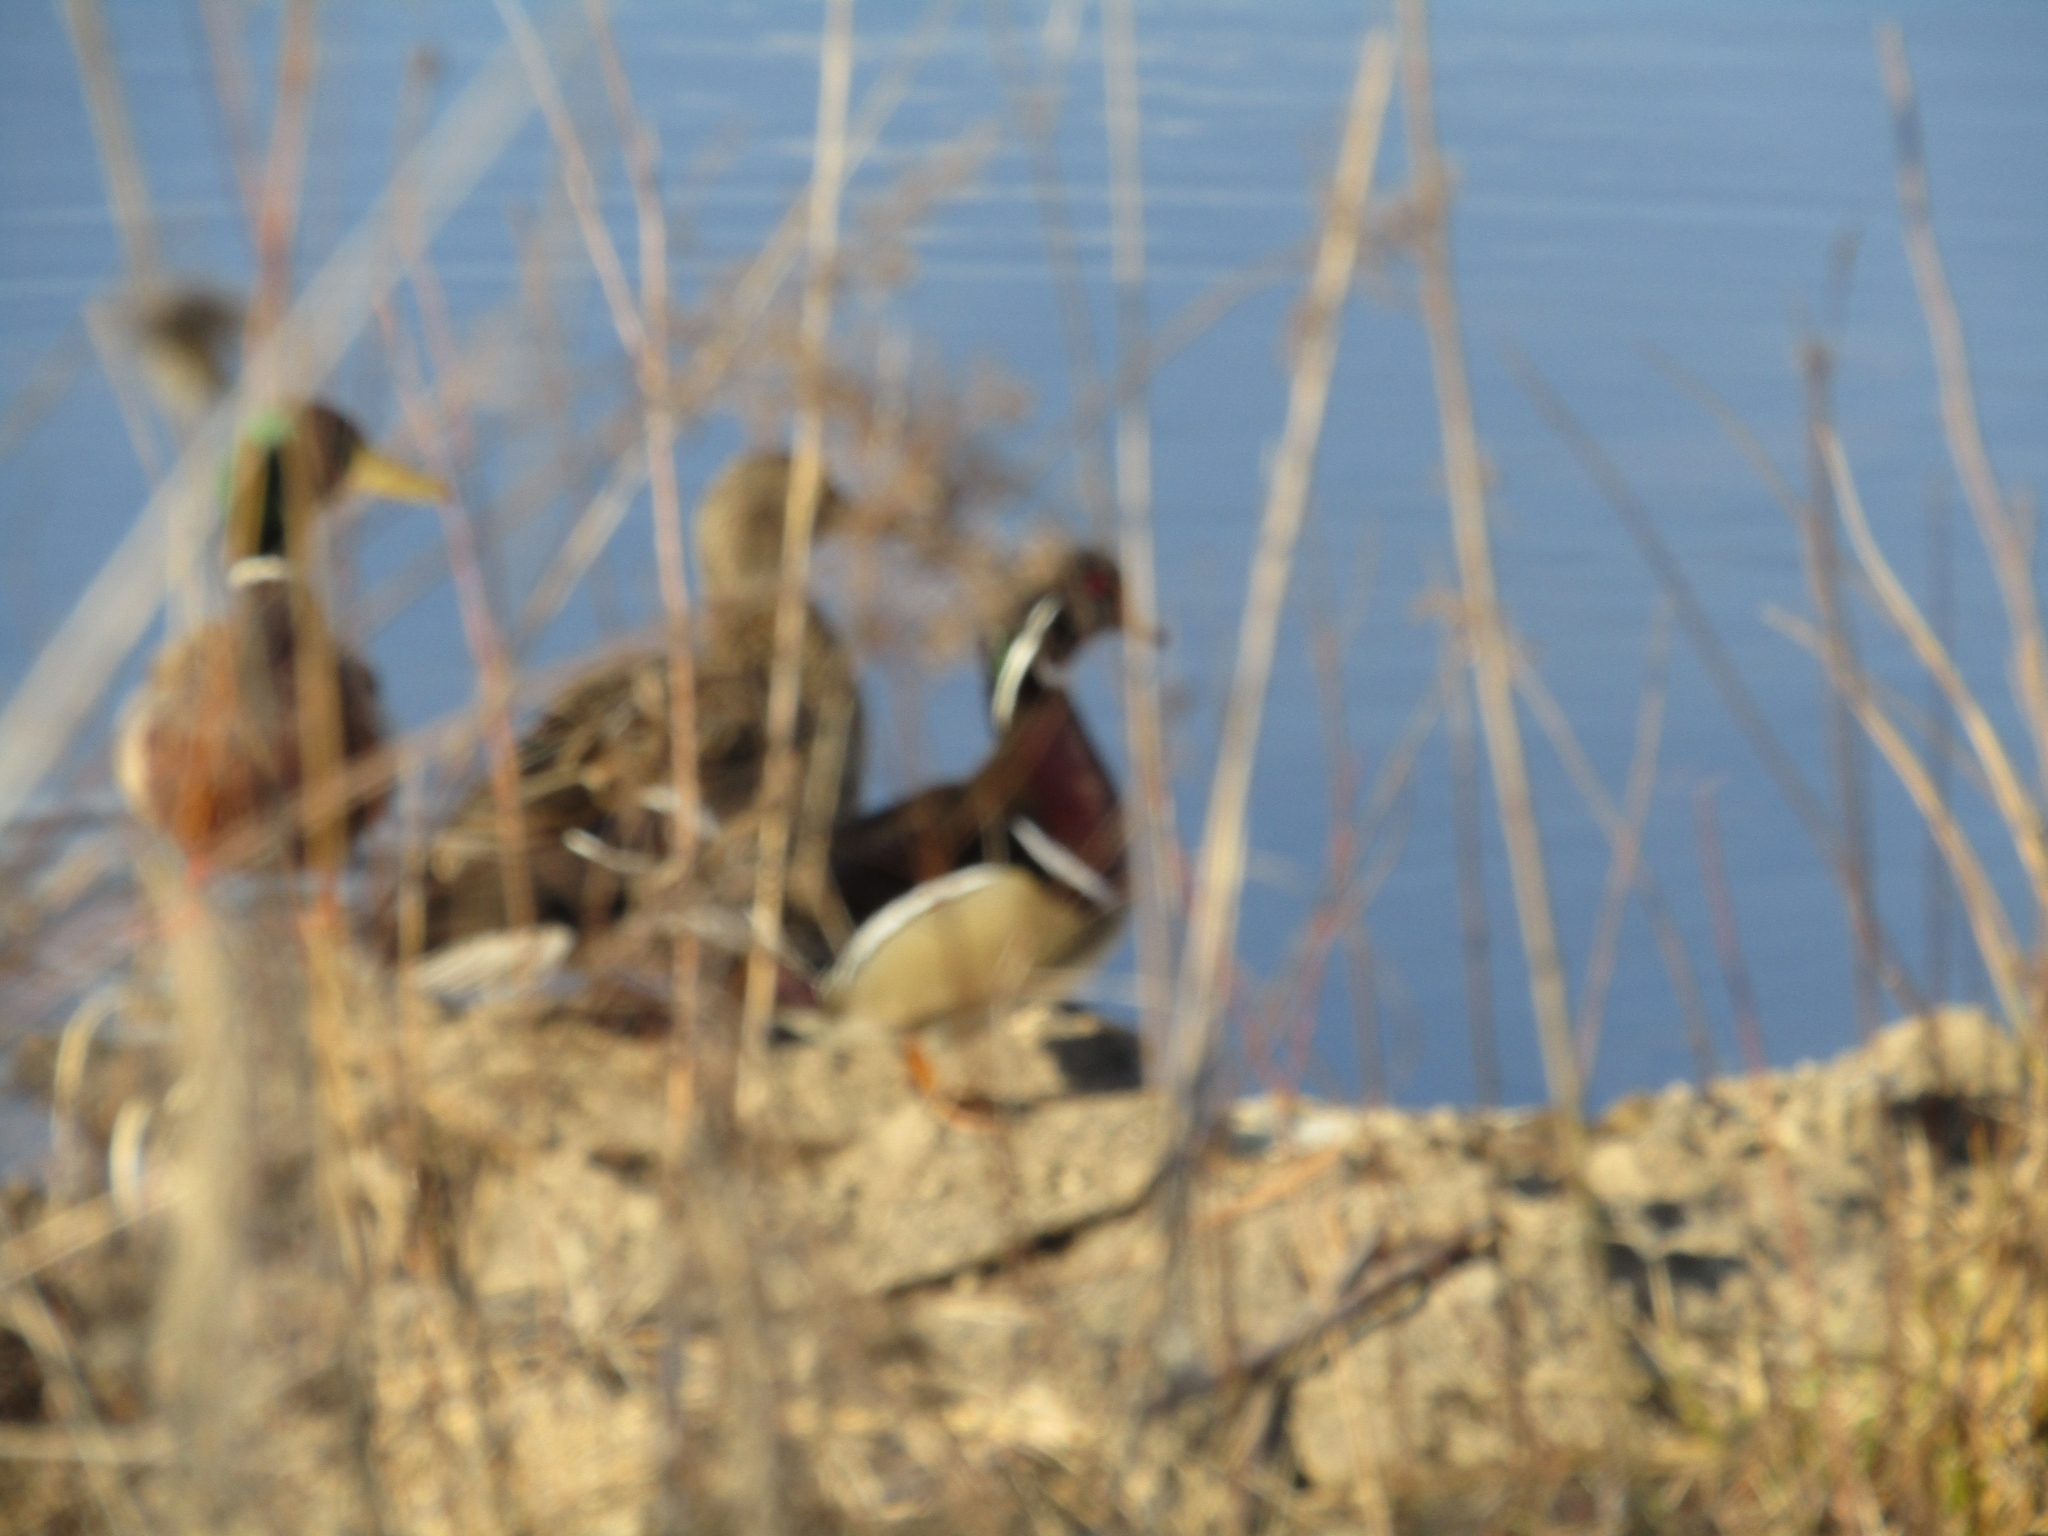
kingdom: Animalia
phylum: Chordata
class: Aves
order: Anseriformes
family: Anatidae
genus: Aix
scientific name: Aix sponsa
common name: Wood duck
